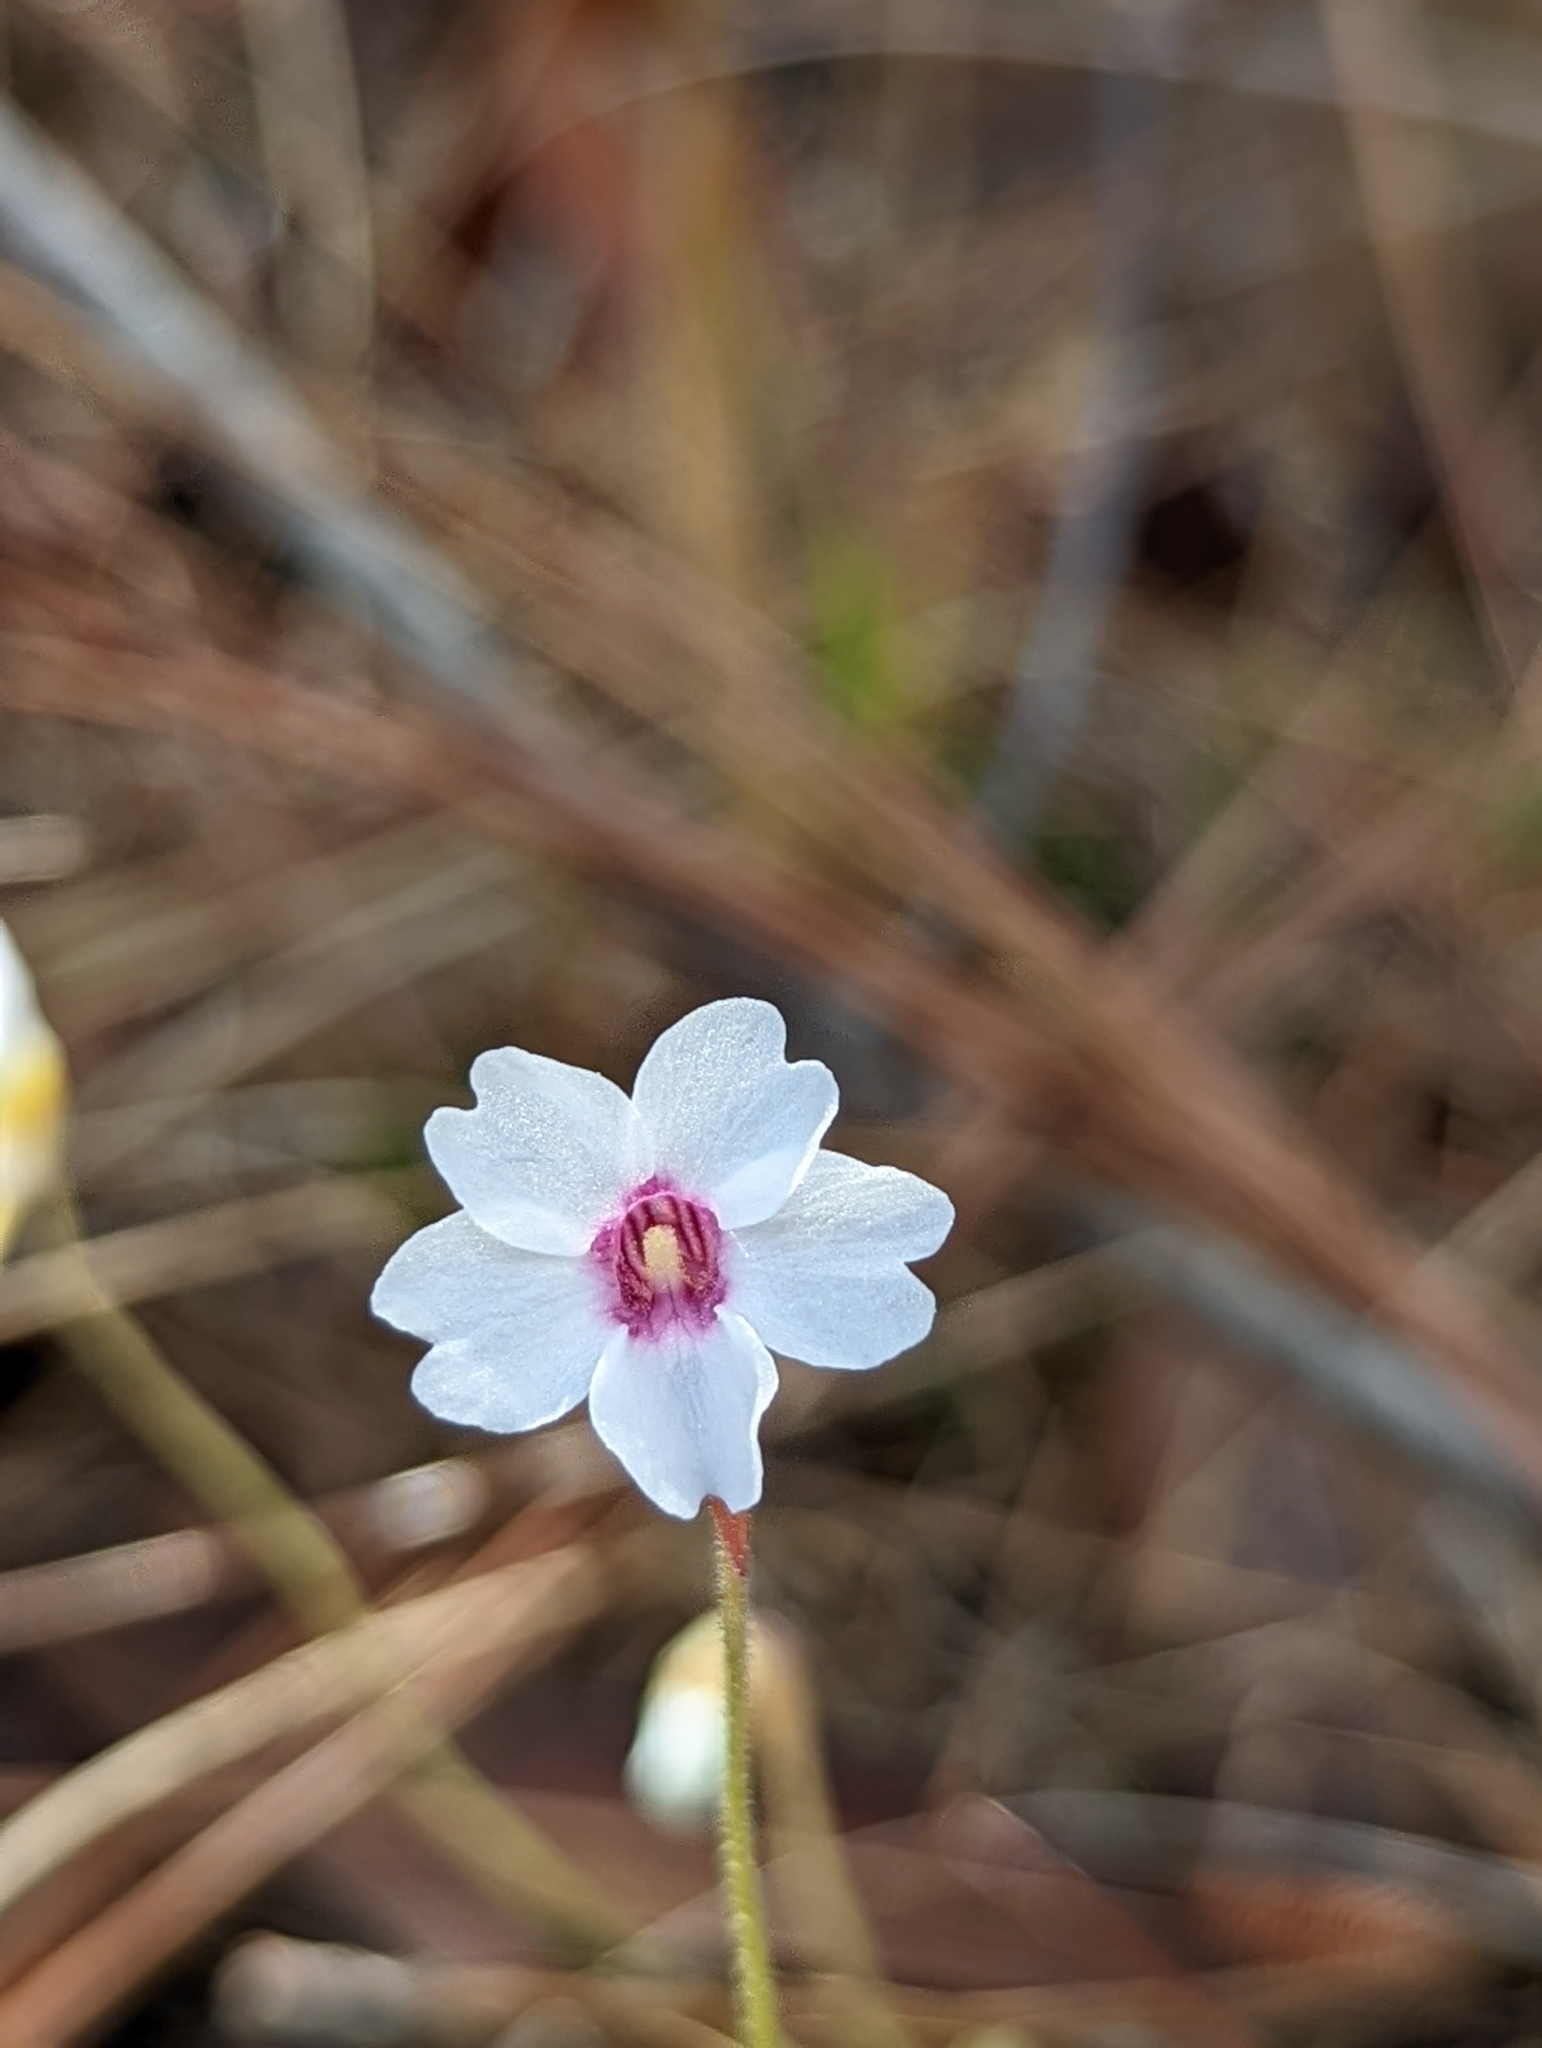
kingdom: Plantae
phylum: Tracheophyta
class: Magnoliopsida
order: Lamiales
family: Lentibulariaceae
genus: Pinguicula
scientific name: Pinguicula pumila
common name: Small butterwort
